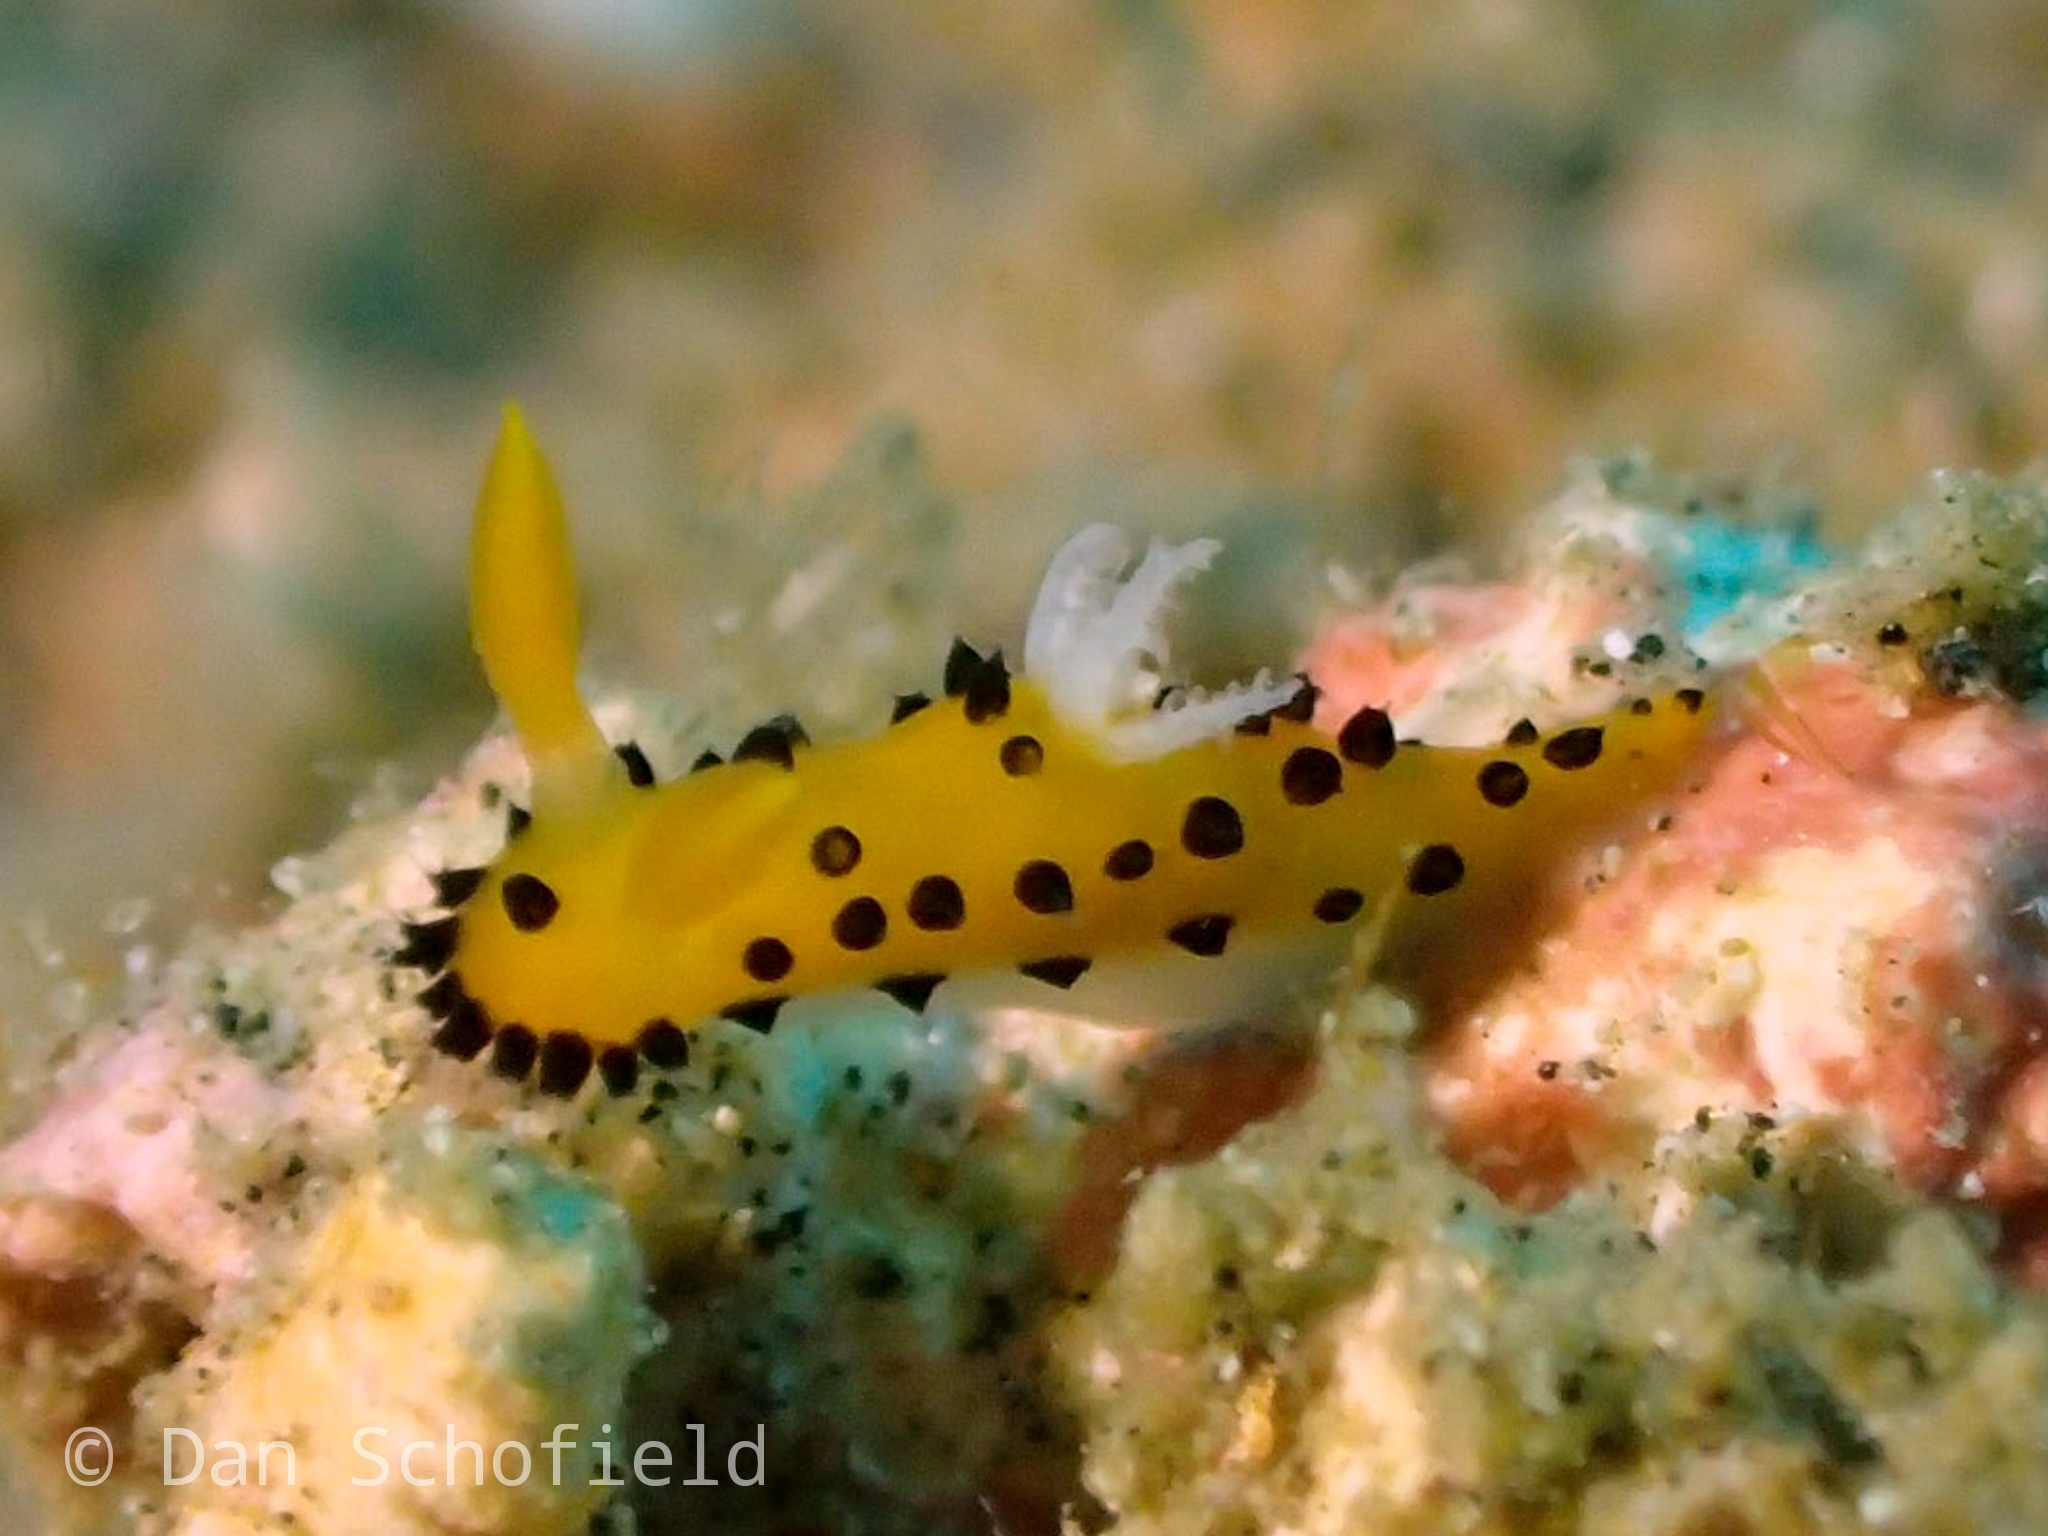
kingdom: Animalia
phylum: Mollusca
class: Gastropoda
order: Nudibranchia
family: Polyceridae
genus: Crimora
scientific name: Crimora lutea
